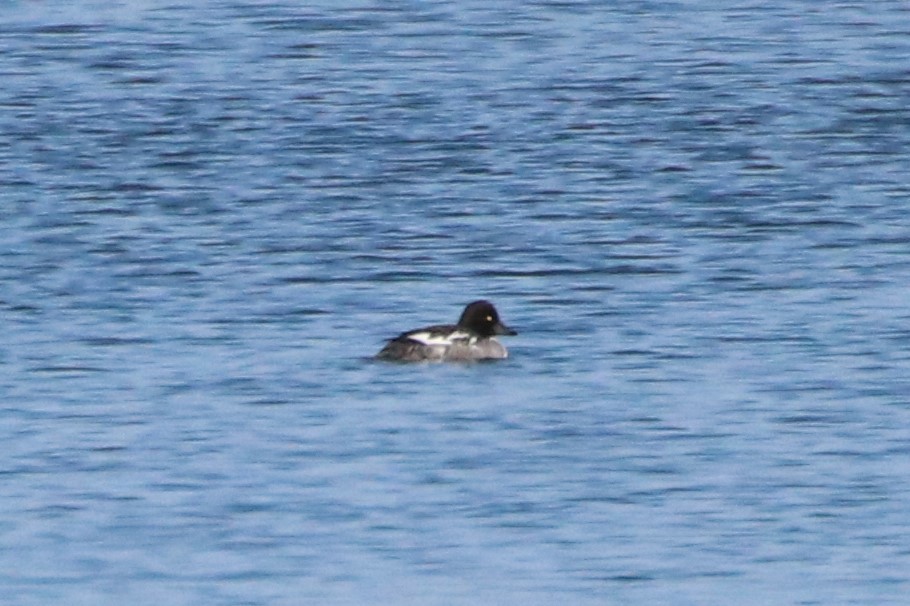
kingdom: Animalia
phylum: Chordata
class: Aves
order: Anseriformes
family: Anatidae
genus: Bucephala
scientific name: Bucephala clangula
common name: Common goldeneye
